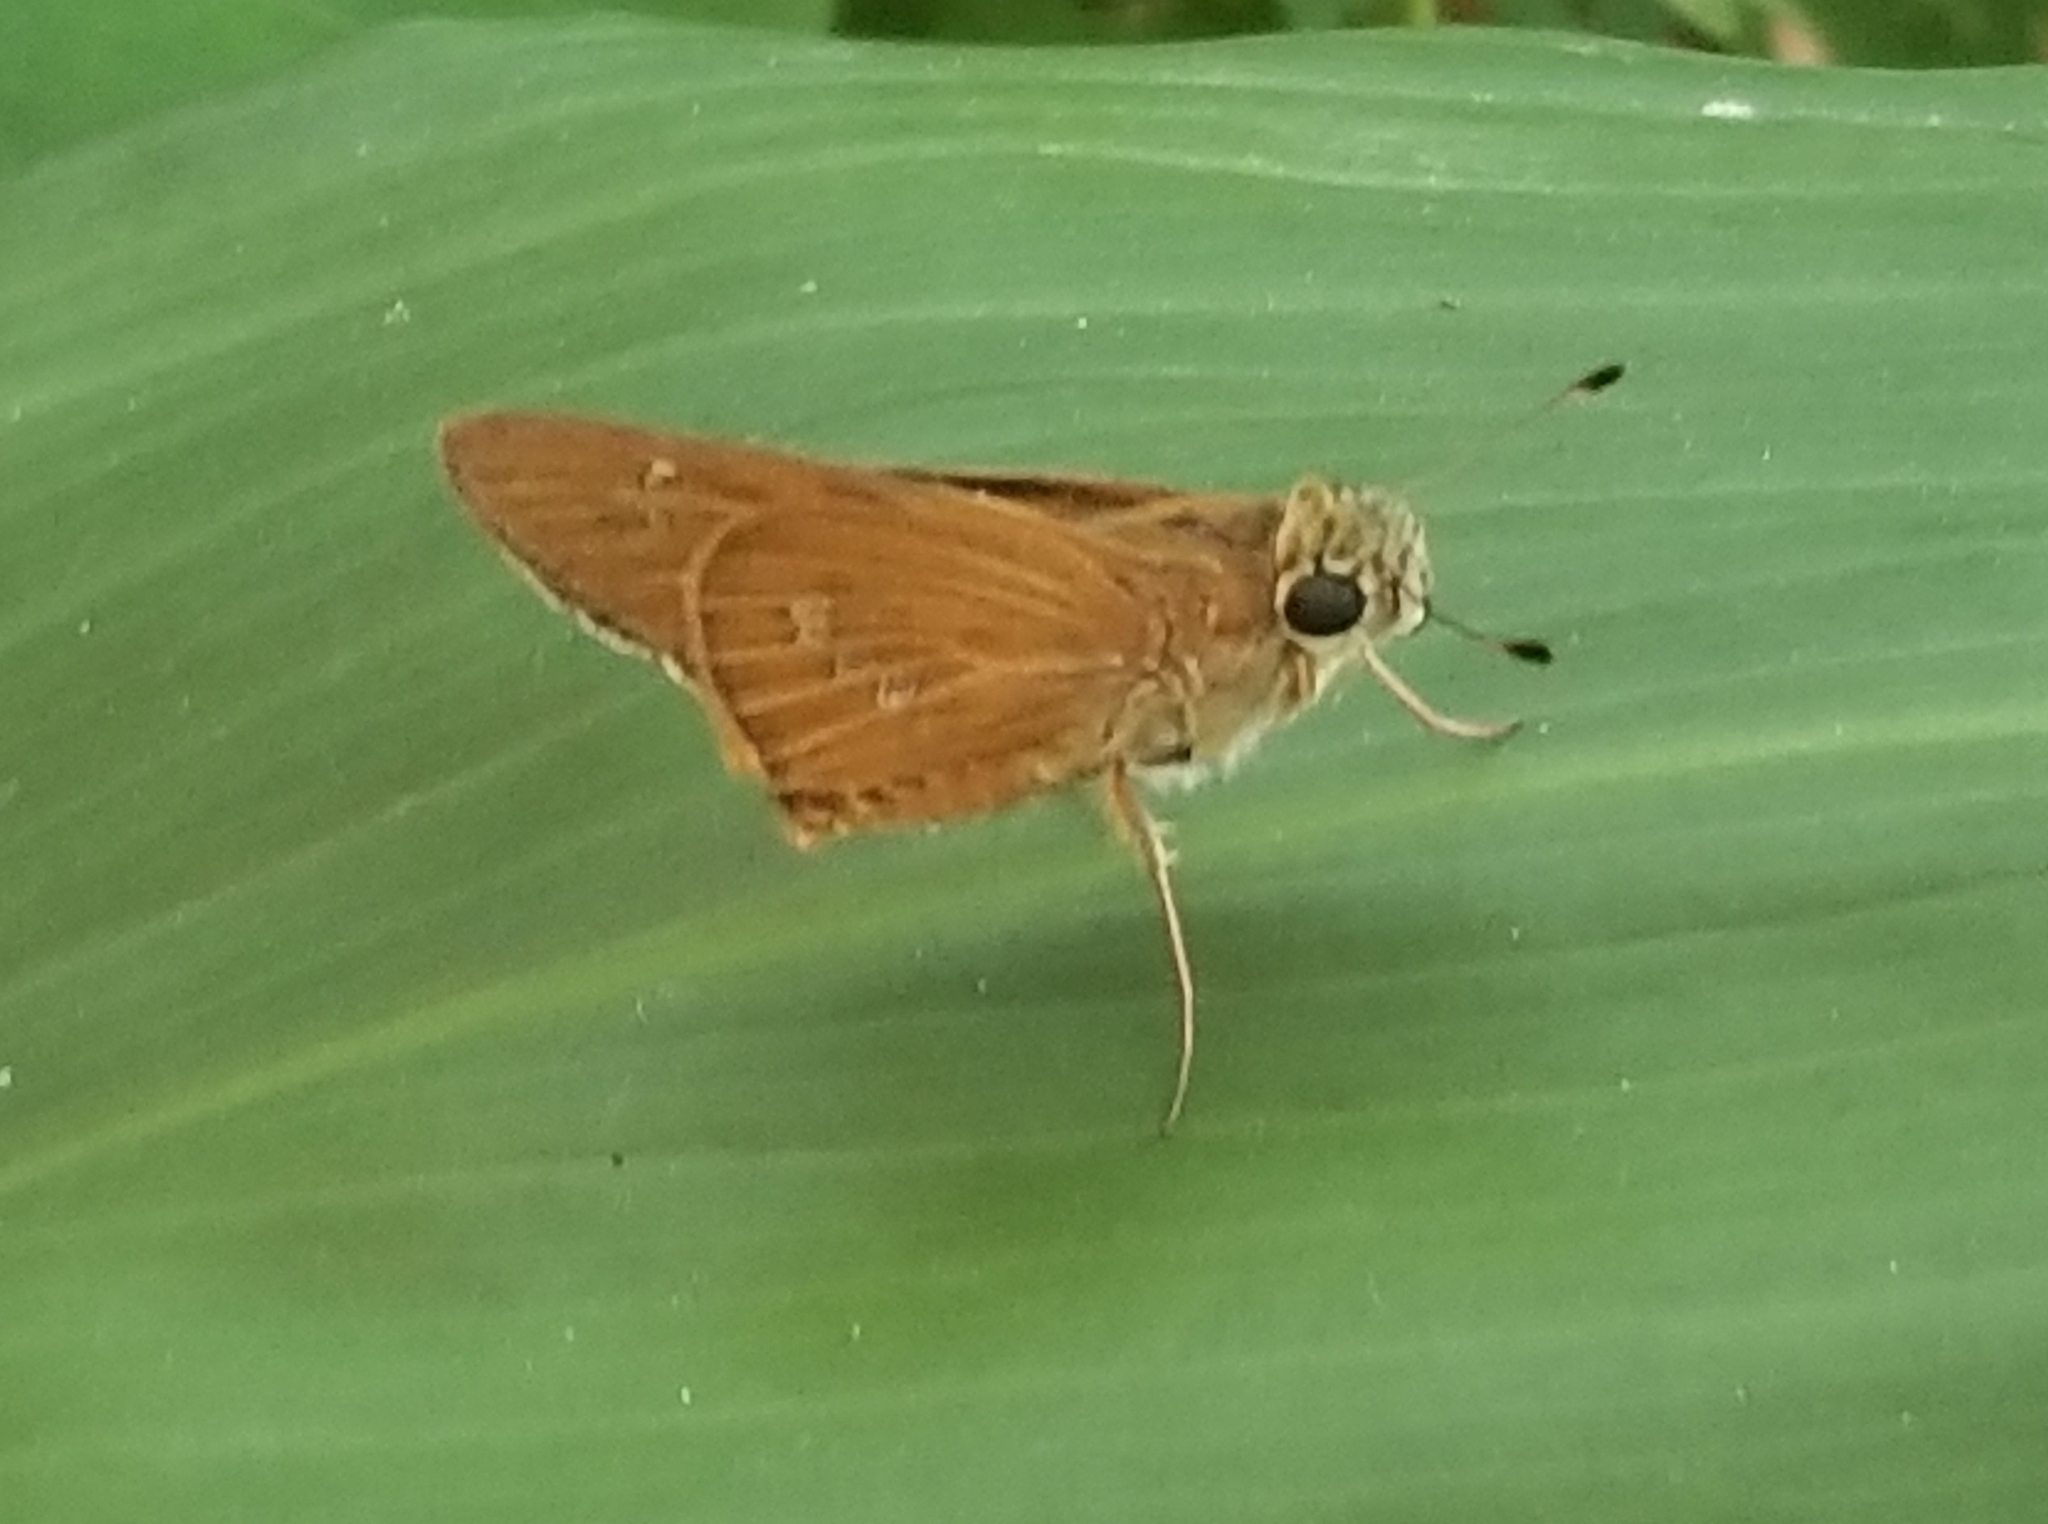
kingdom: Animalia
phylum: Arthropoda
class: Insecta
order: Lepidoptera
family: Hesperiidae
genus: Calpodes
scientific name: Calpodes ethlius
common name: Brazilian skipper
